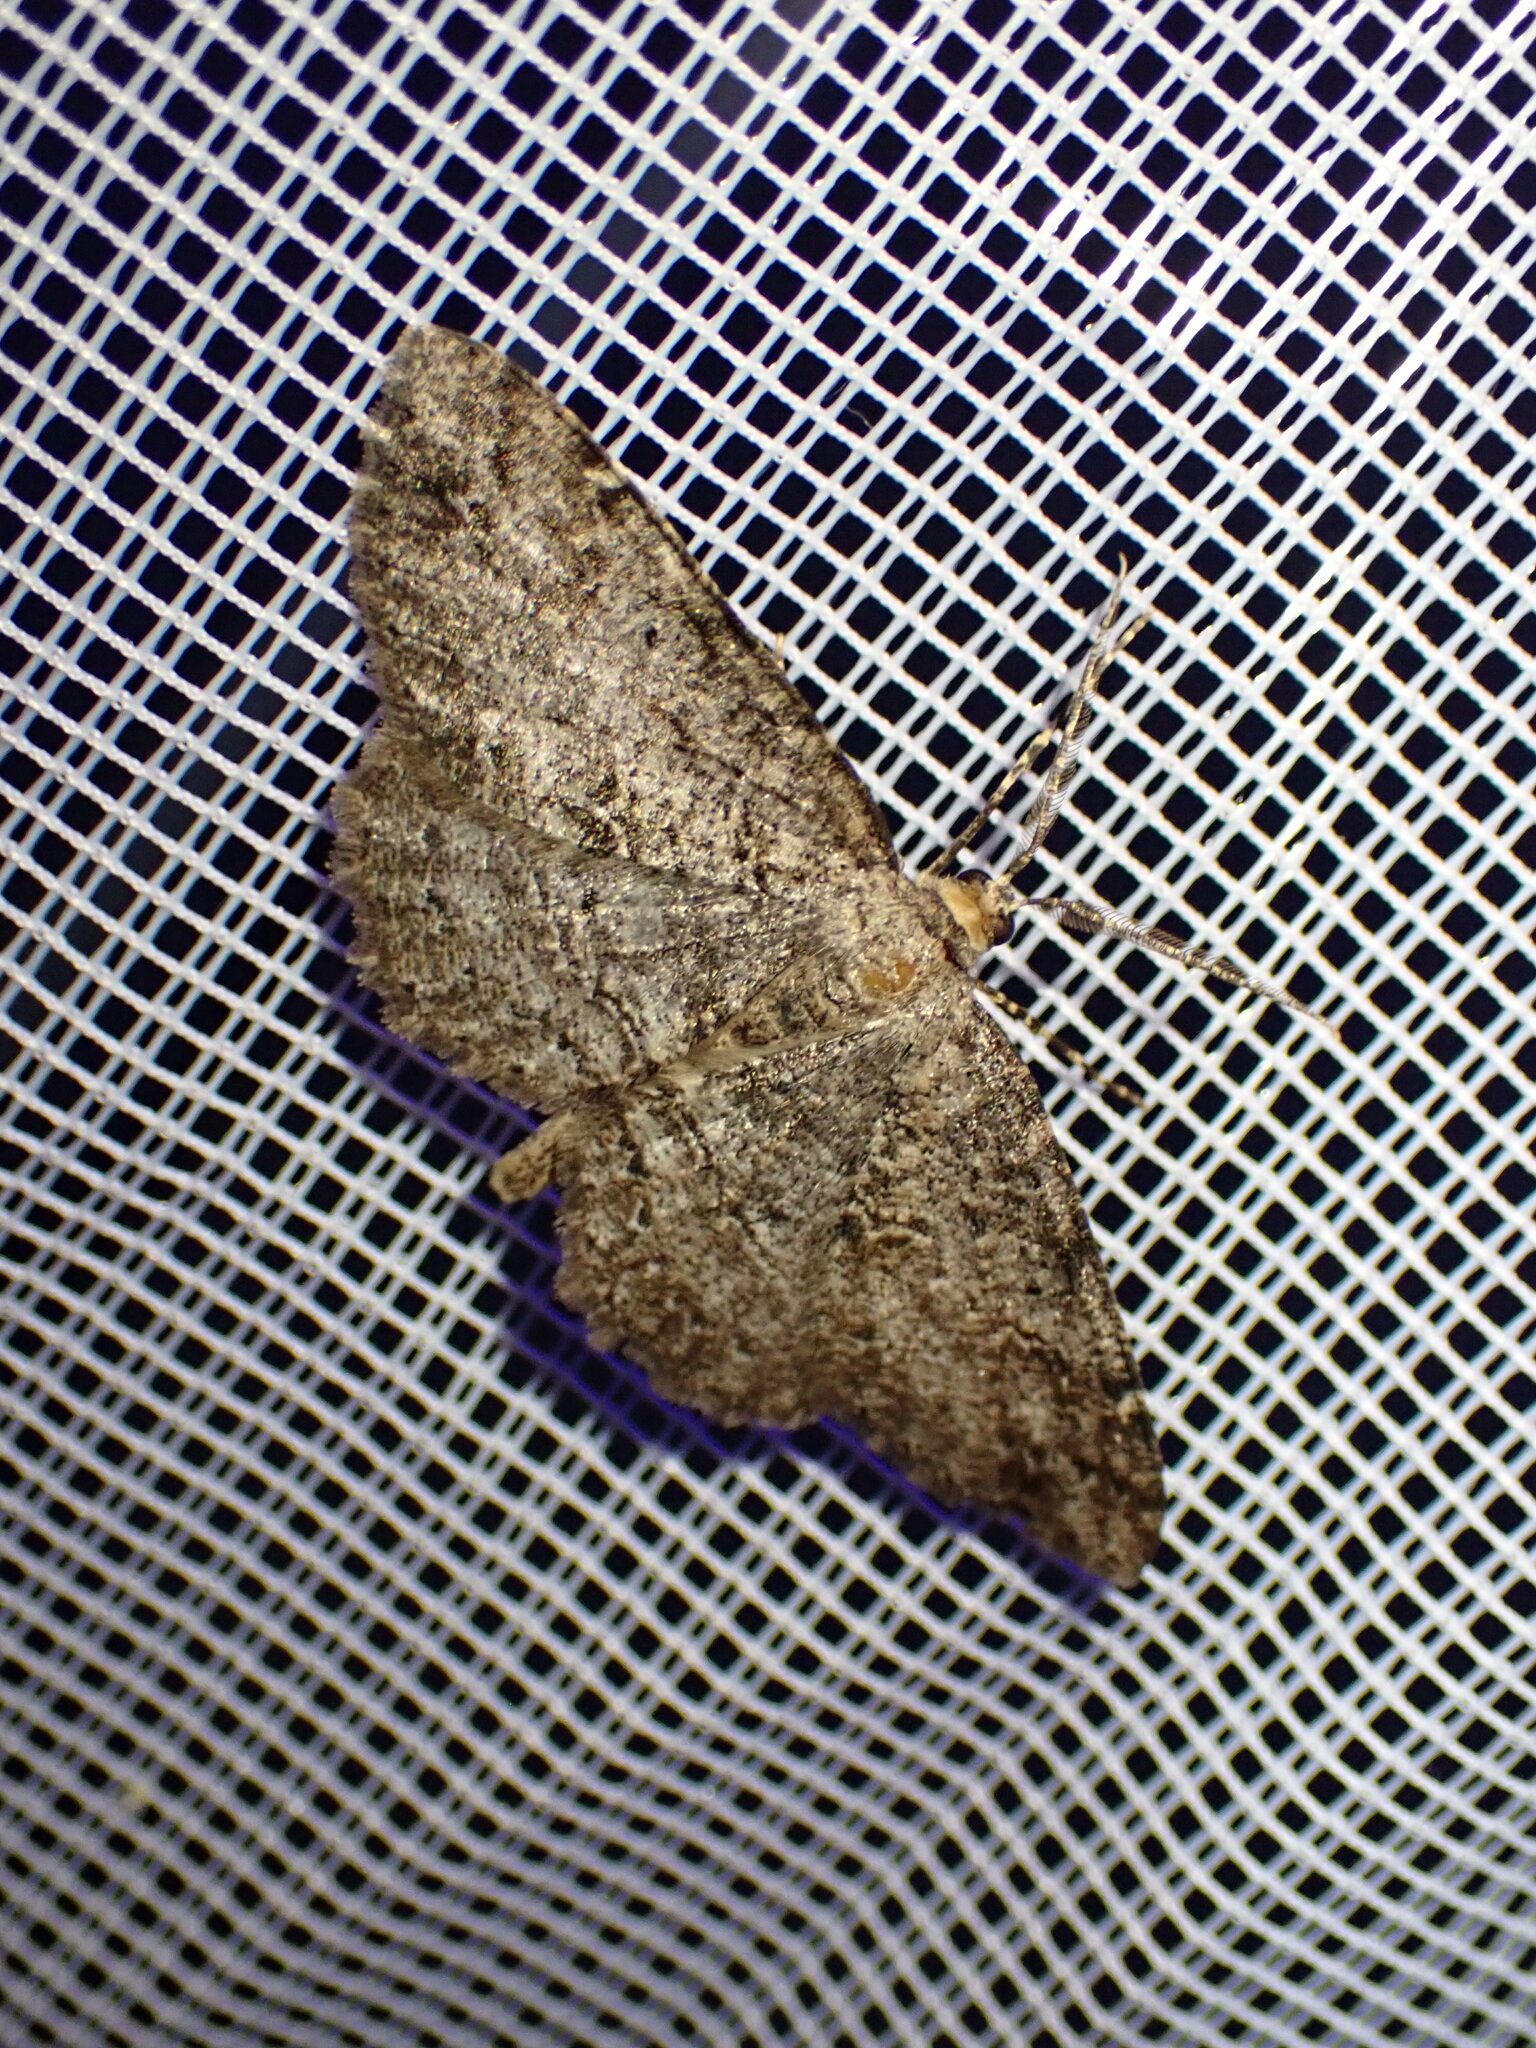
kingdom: Animalia
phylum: Arthropoda
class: Insecta
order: Lepidoptera
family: Geometridae
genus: Melanolophia
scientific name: Melanolophia canadaria
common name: Canadian melanolophia
